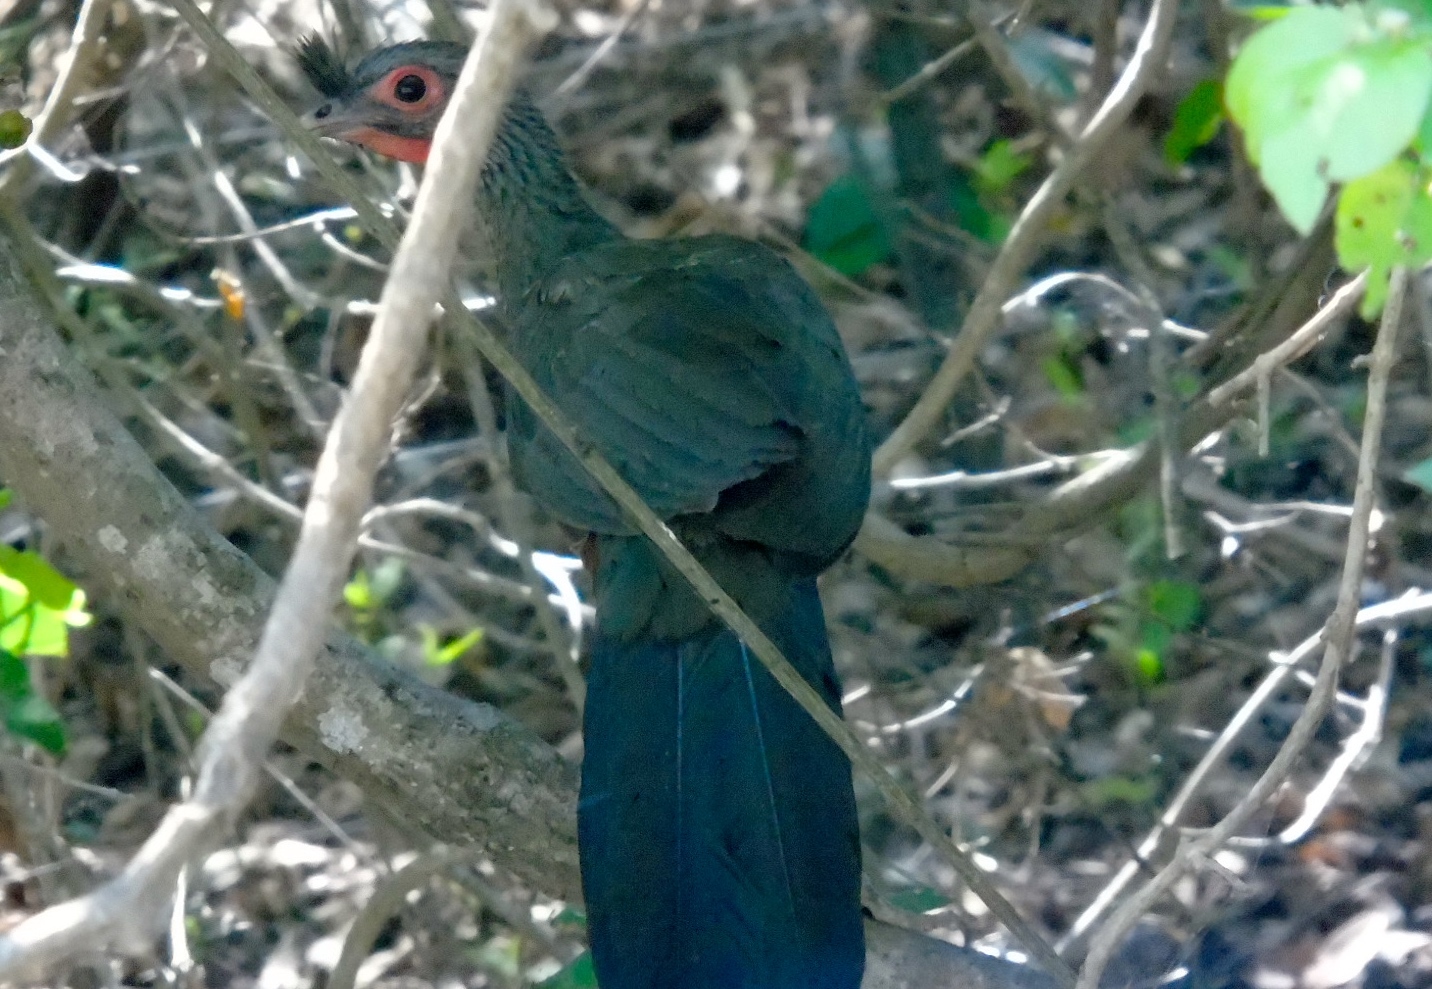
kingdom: Animalia
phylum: Chordata
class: Aves
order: Galliformes
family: Cracidae
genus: Ortalis
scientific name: Ortalis wagleri
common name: Rufous-bellied chachalaca
